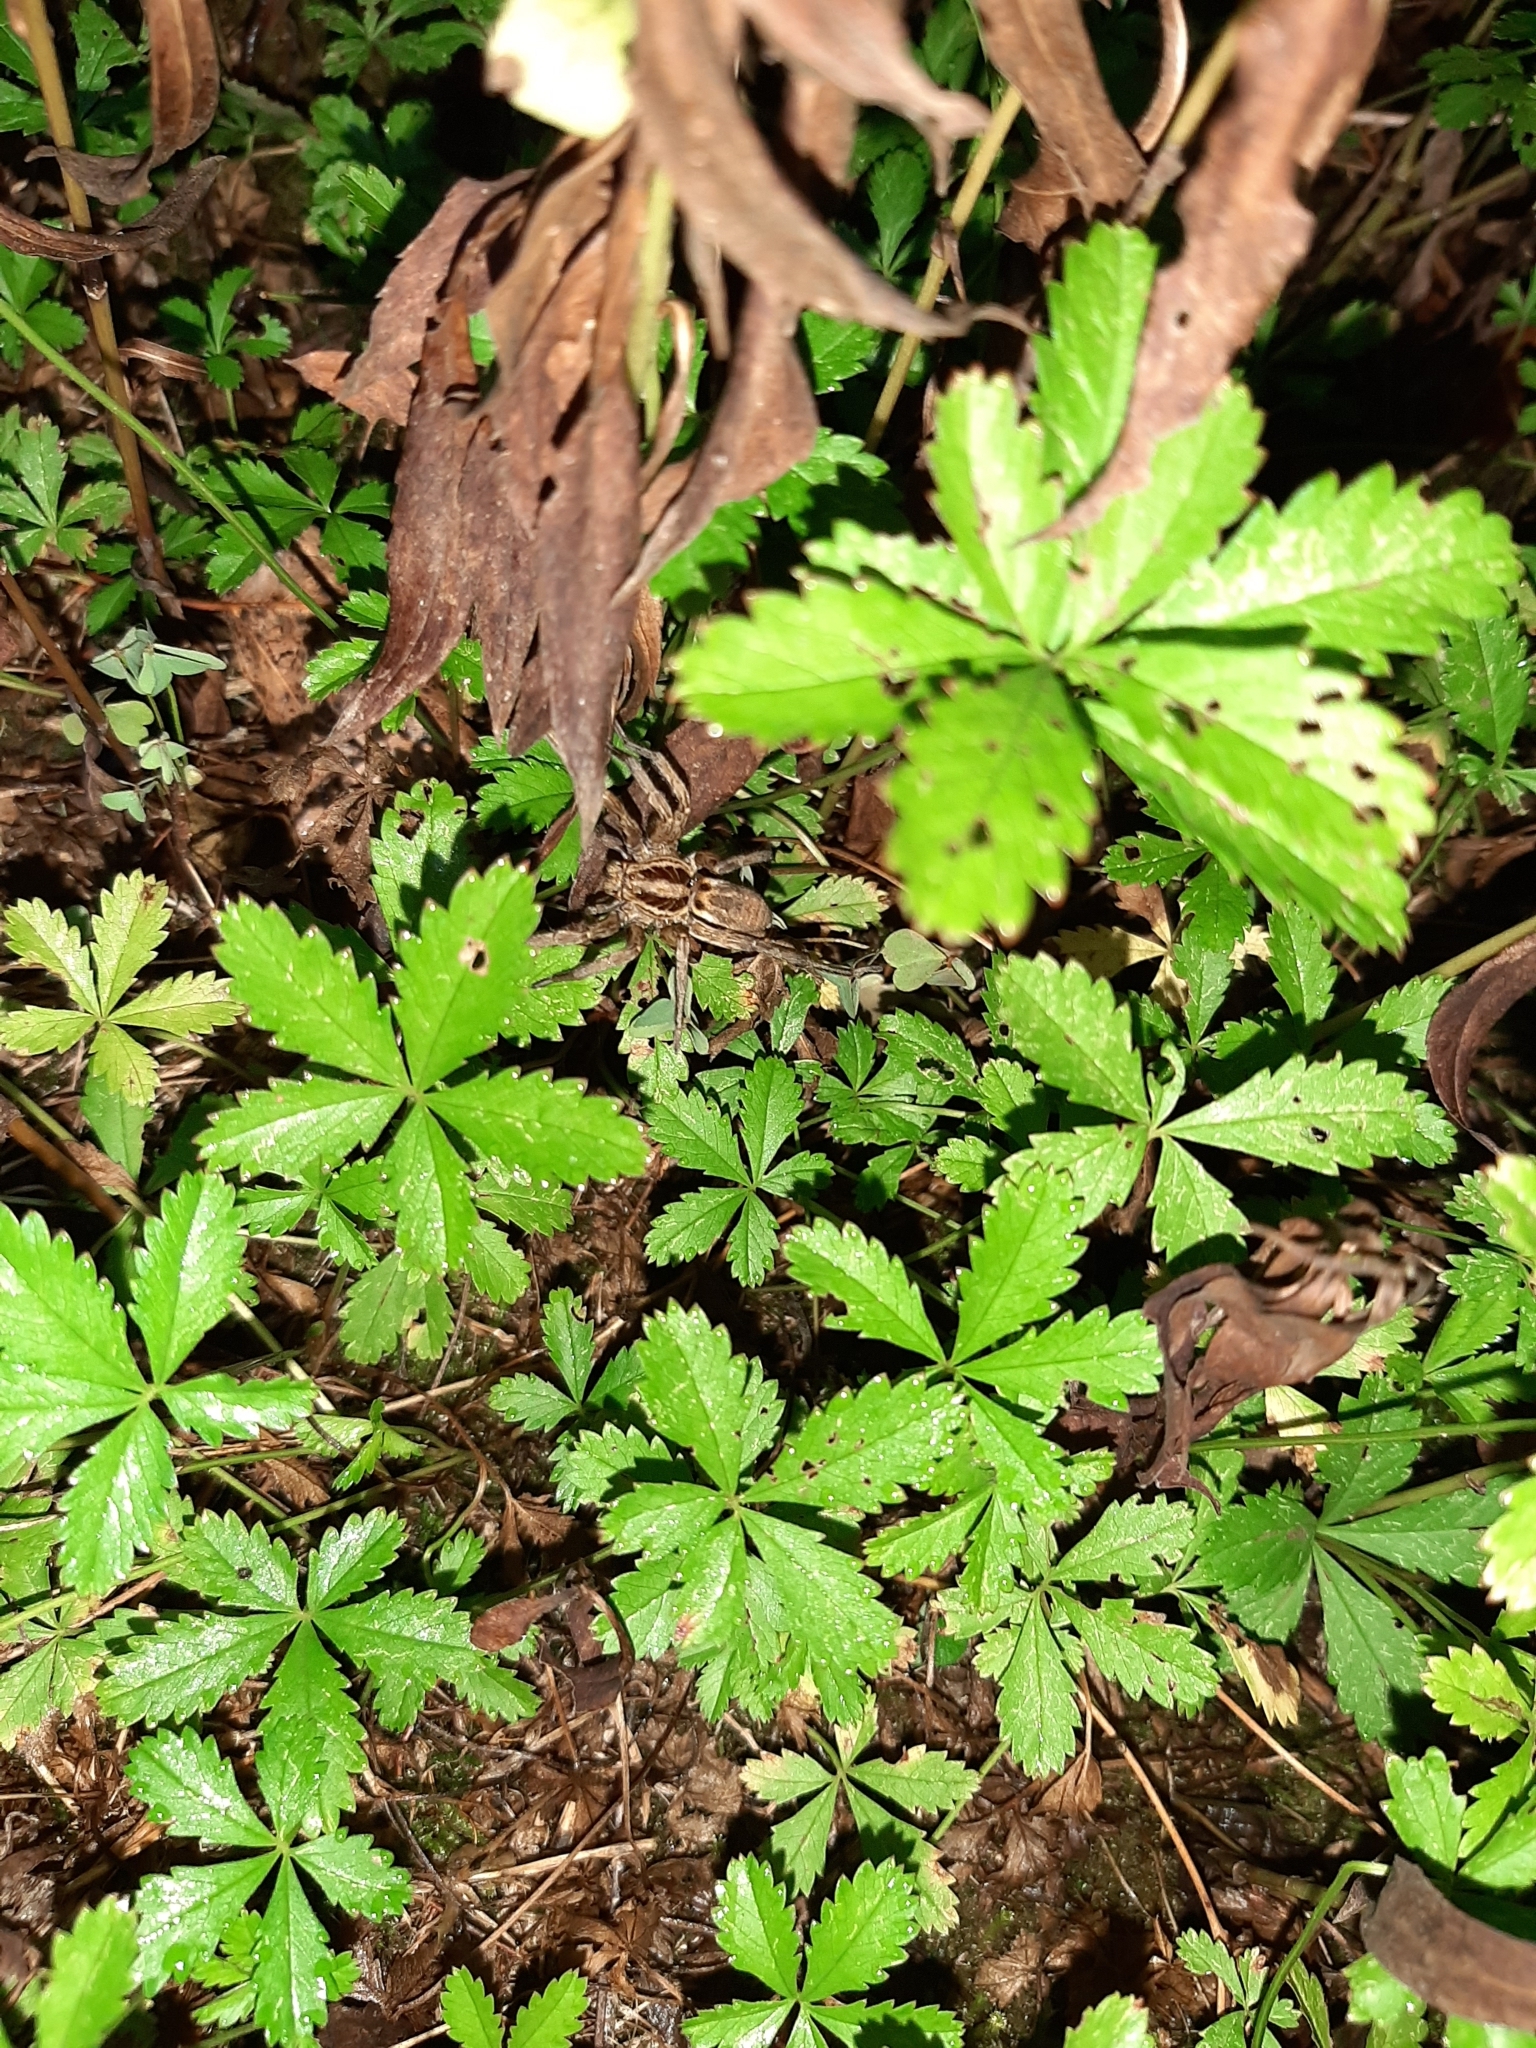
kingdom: Animalia
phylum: Arthropoda
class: Arachnida
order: Araneae
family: Lycosidae
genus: Hogna
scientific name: Hogna radiata
